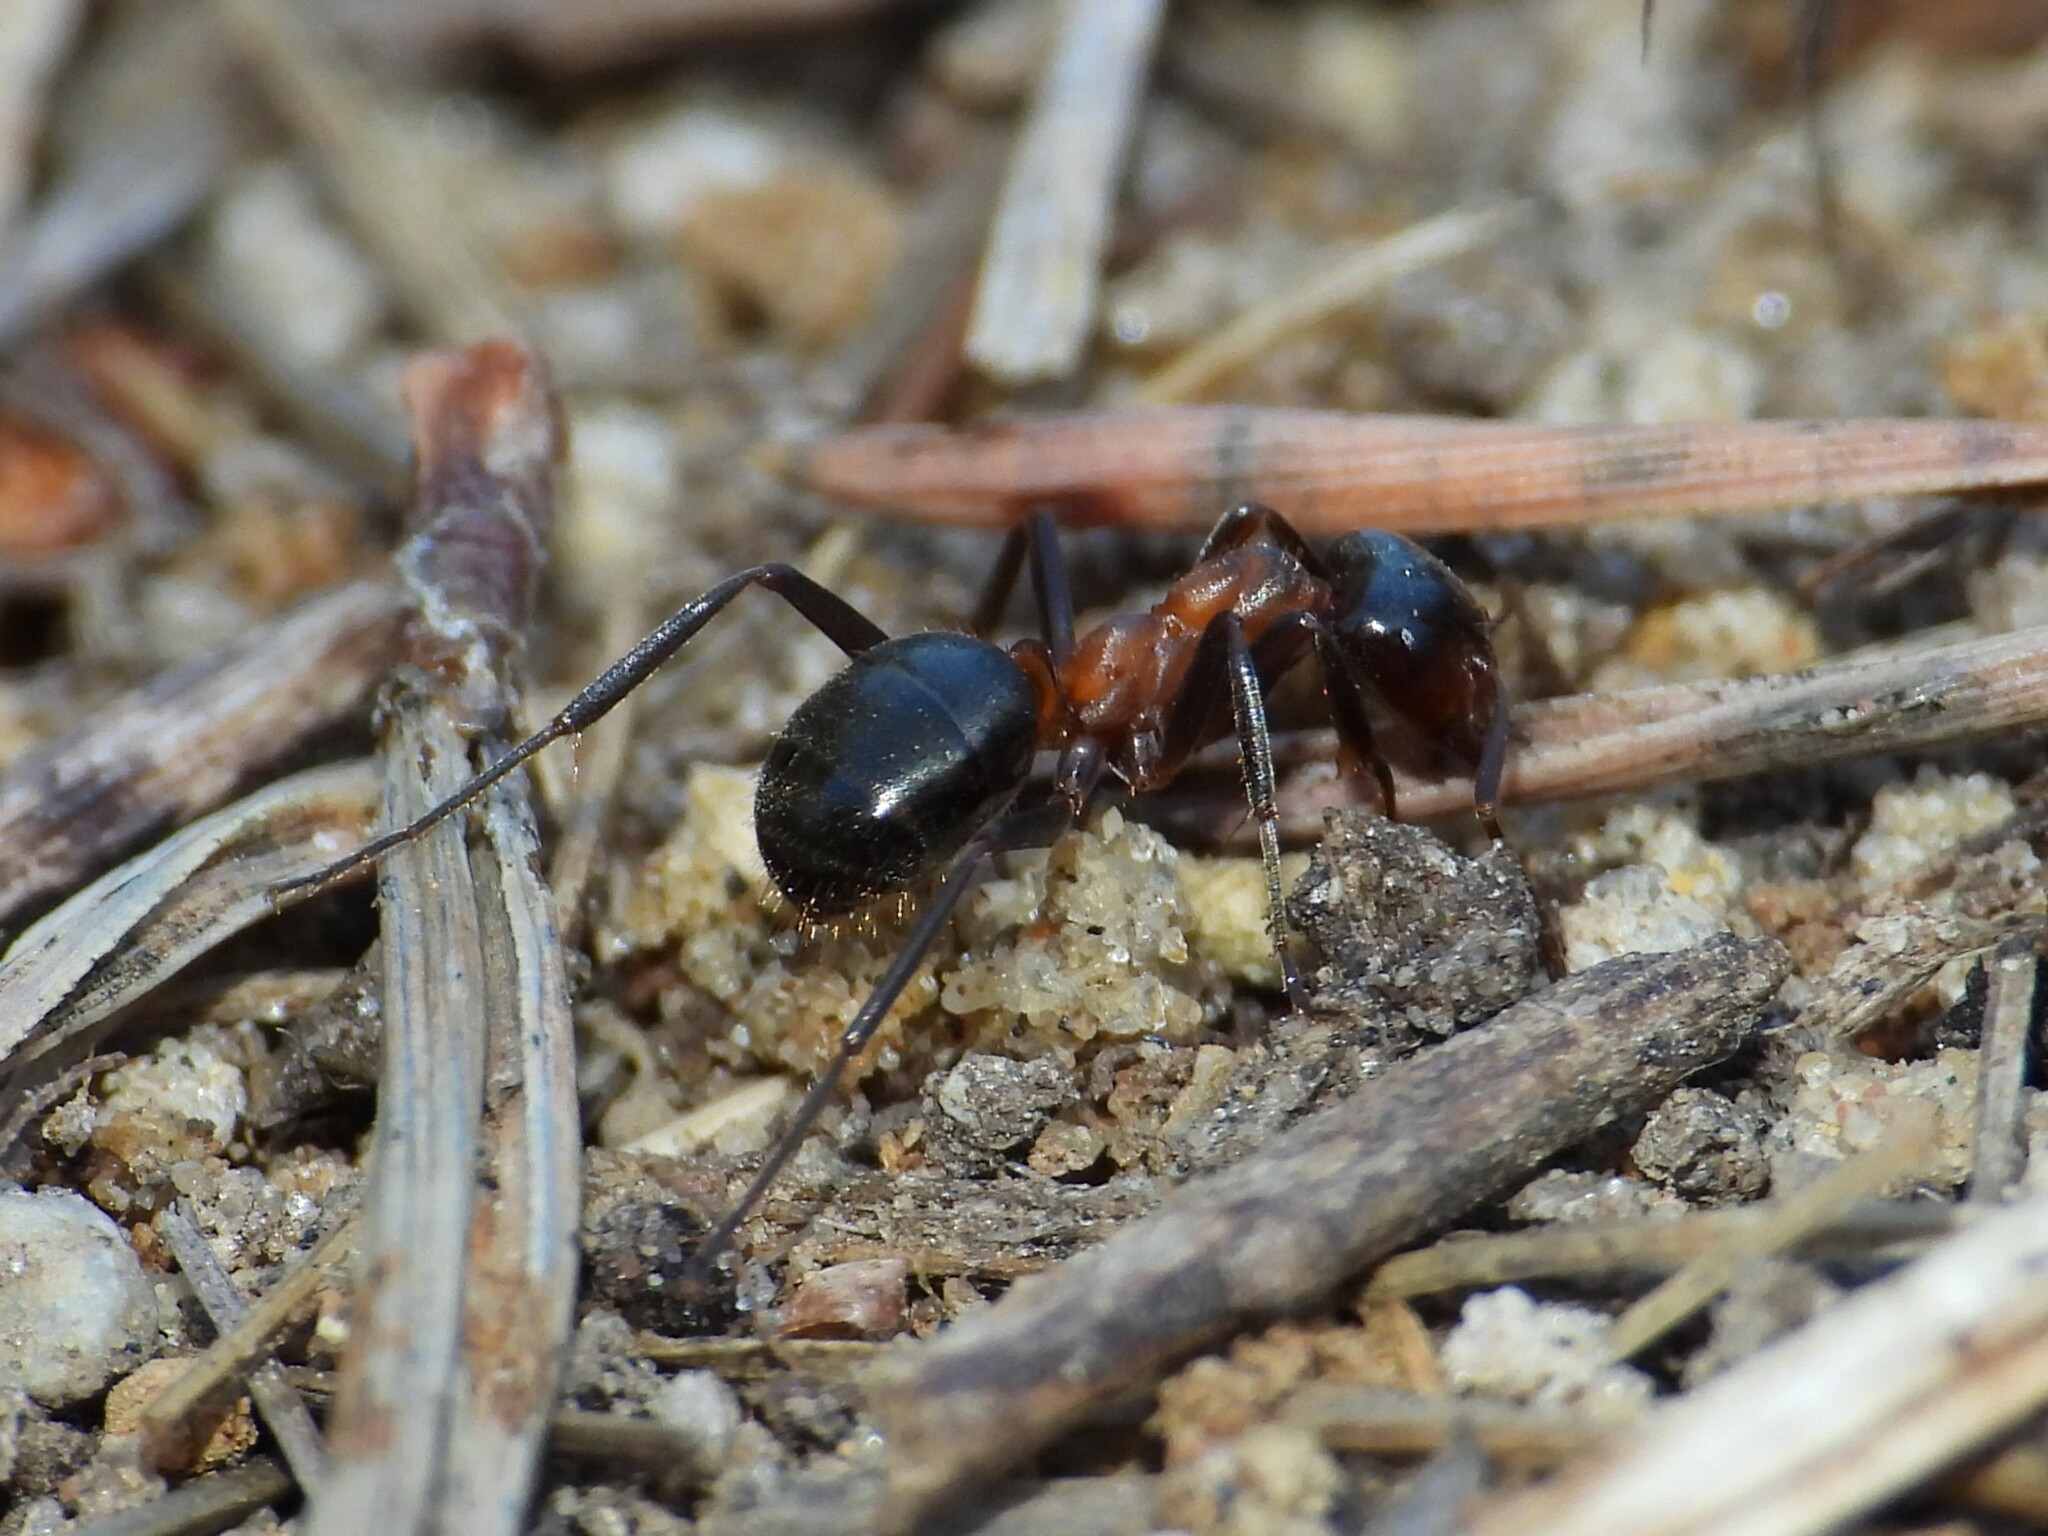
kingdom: Animalia
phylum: Arthropoda
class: Insecta
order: Hymenoptera
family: Formicidae
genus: Formica
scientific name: Formica ulkei
